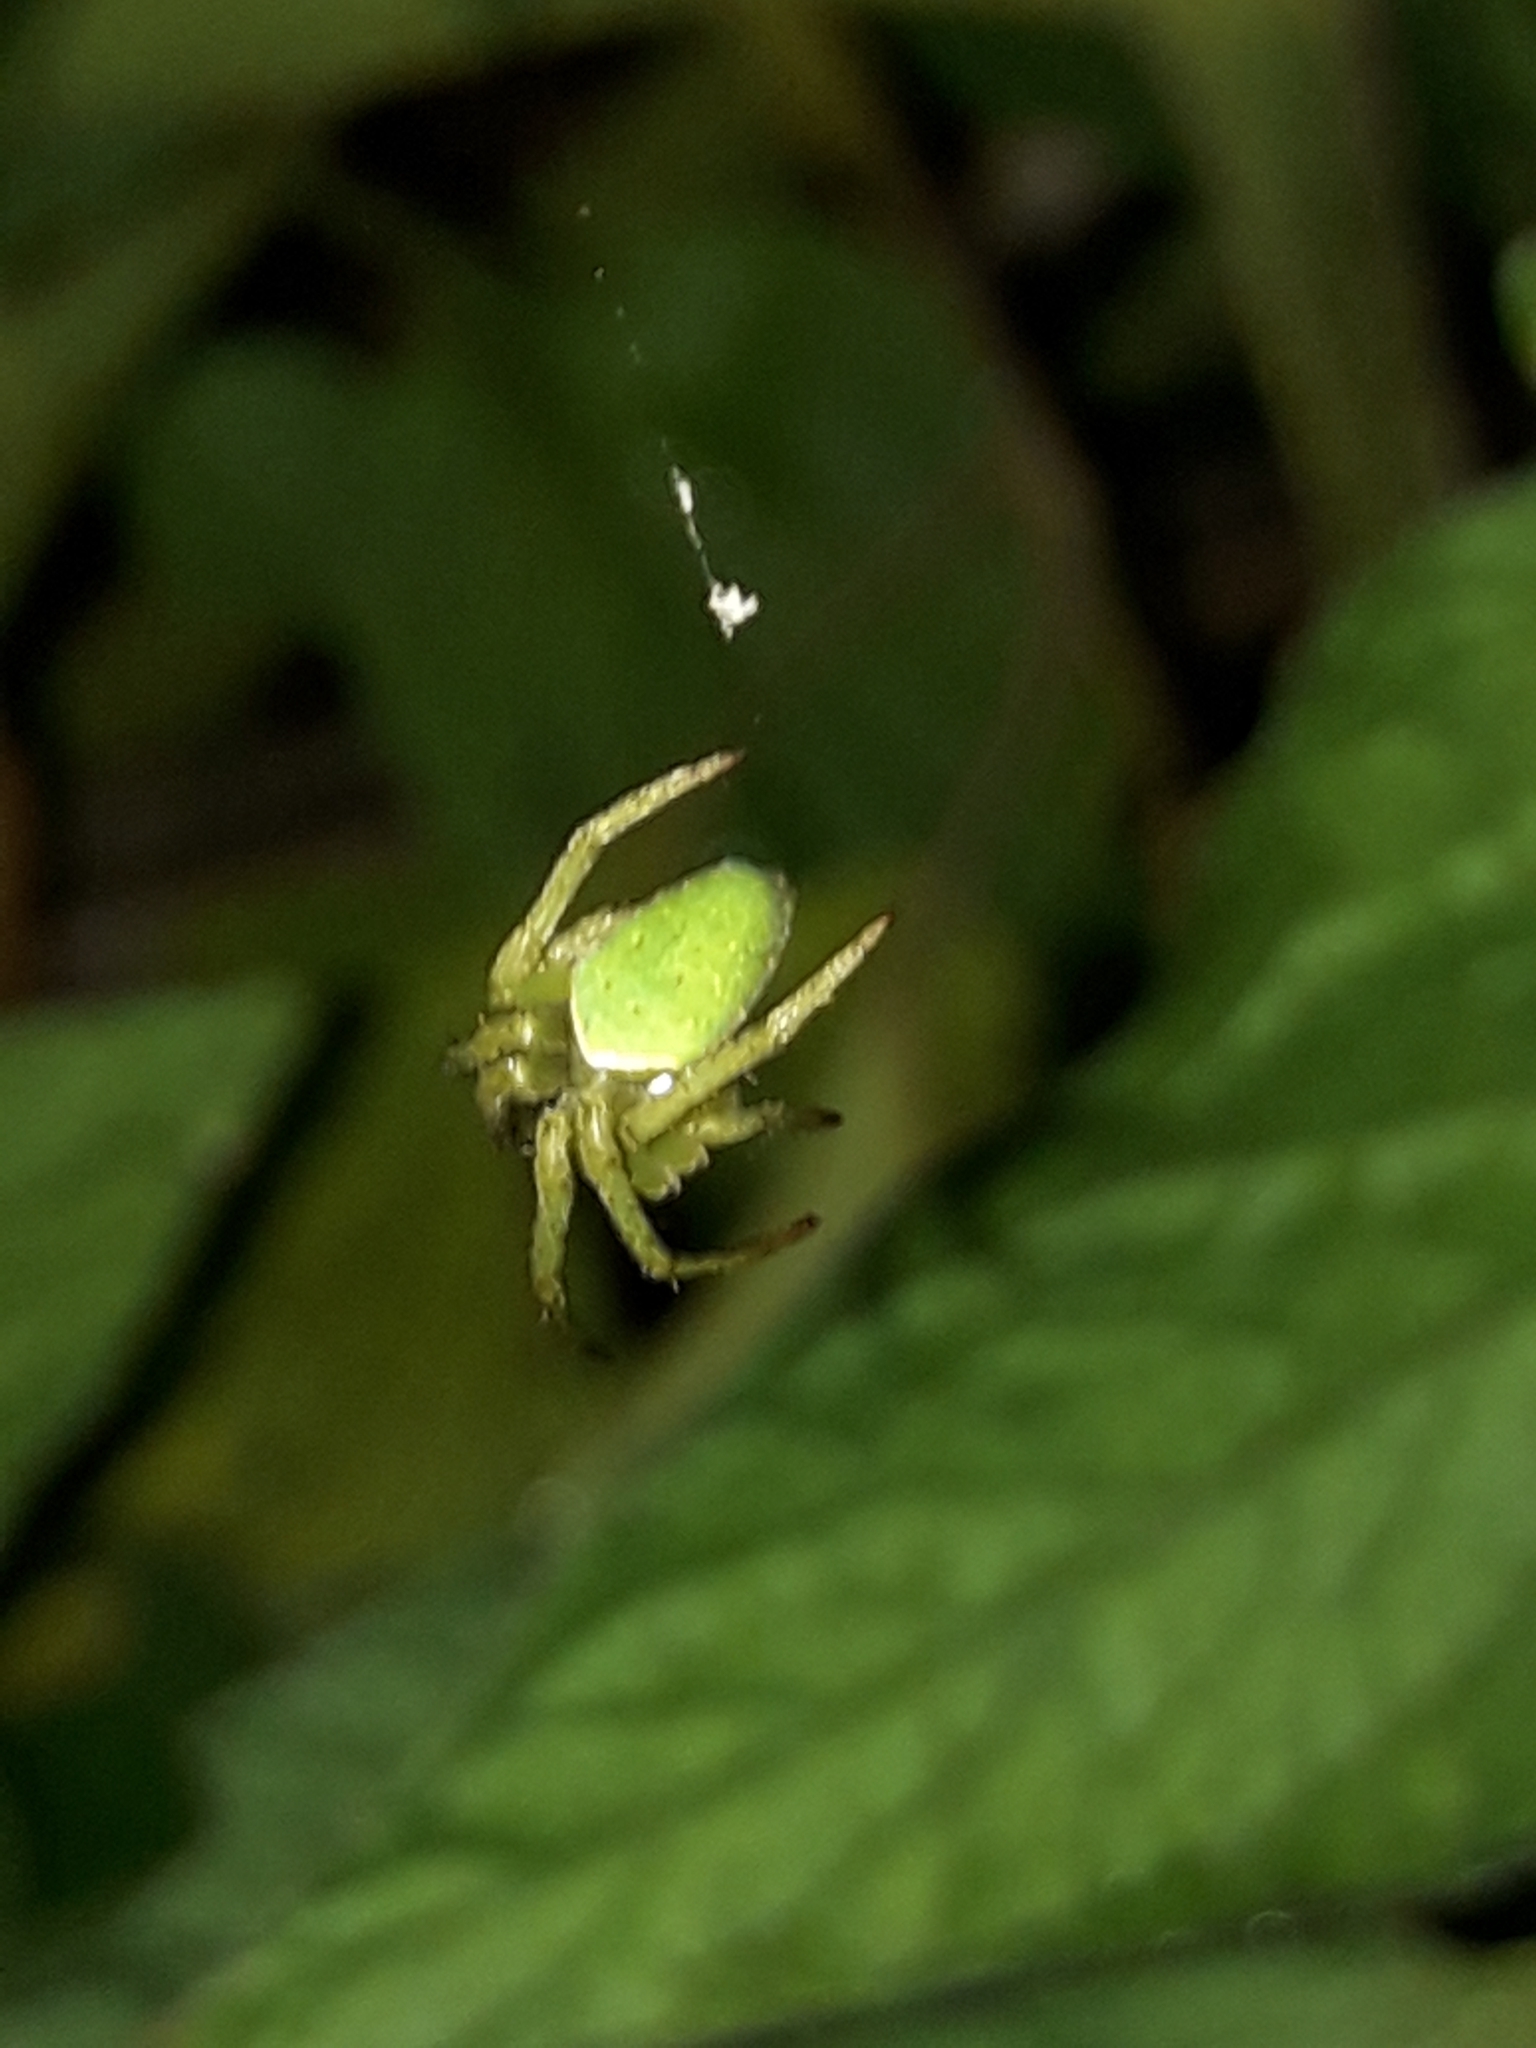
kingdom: Animalia
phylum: Arthropoda
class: Arachnida
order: Araneae
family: Araneidae
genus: Colaranea
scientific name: Colaranea viriditas
